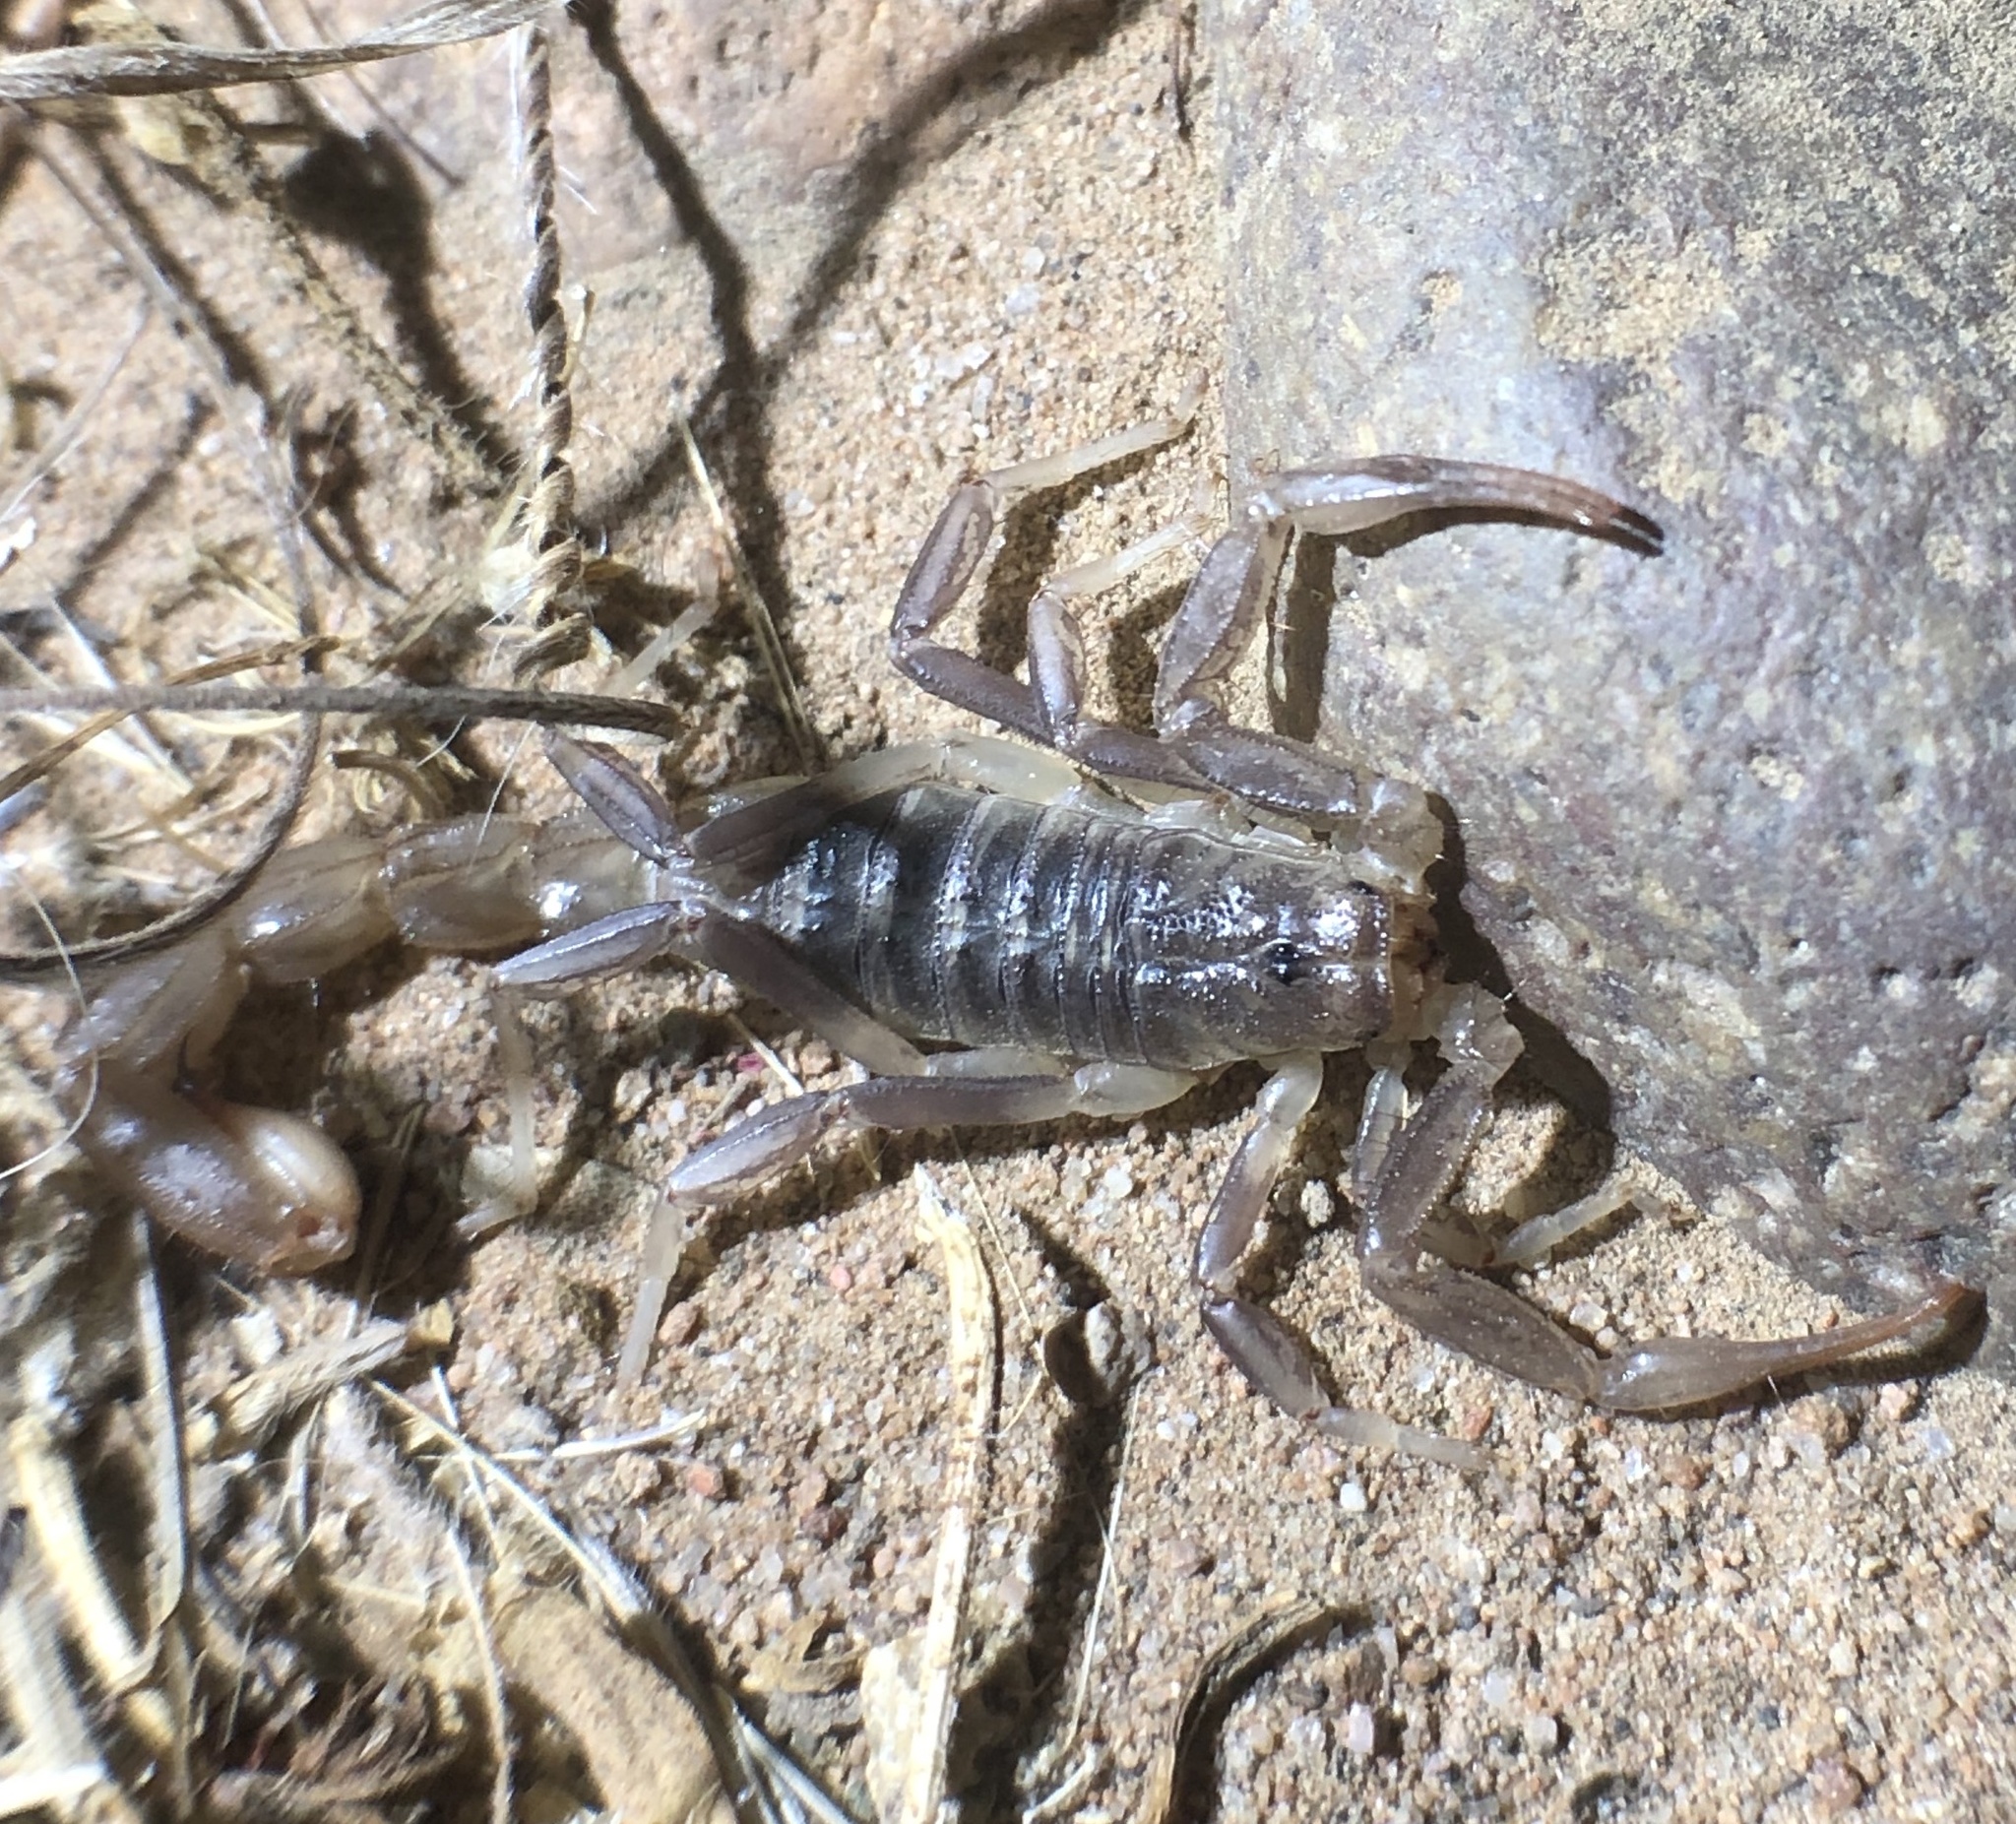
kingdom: Animalia
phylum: Arthropoda
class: Arachnida
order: Scorpiones
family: Vaejovidae
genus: Paravaejovis
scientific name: Paravaejovis puritanus
